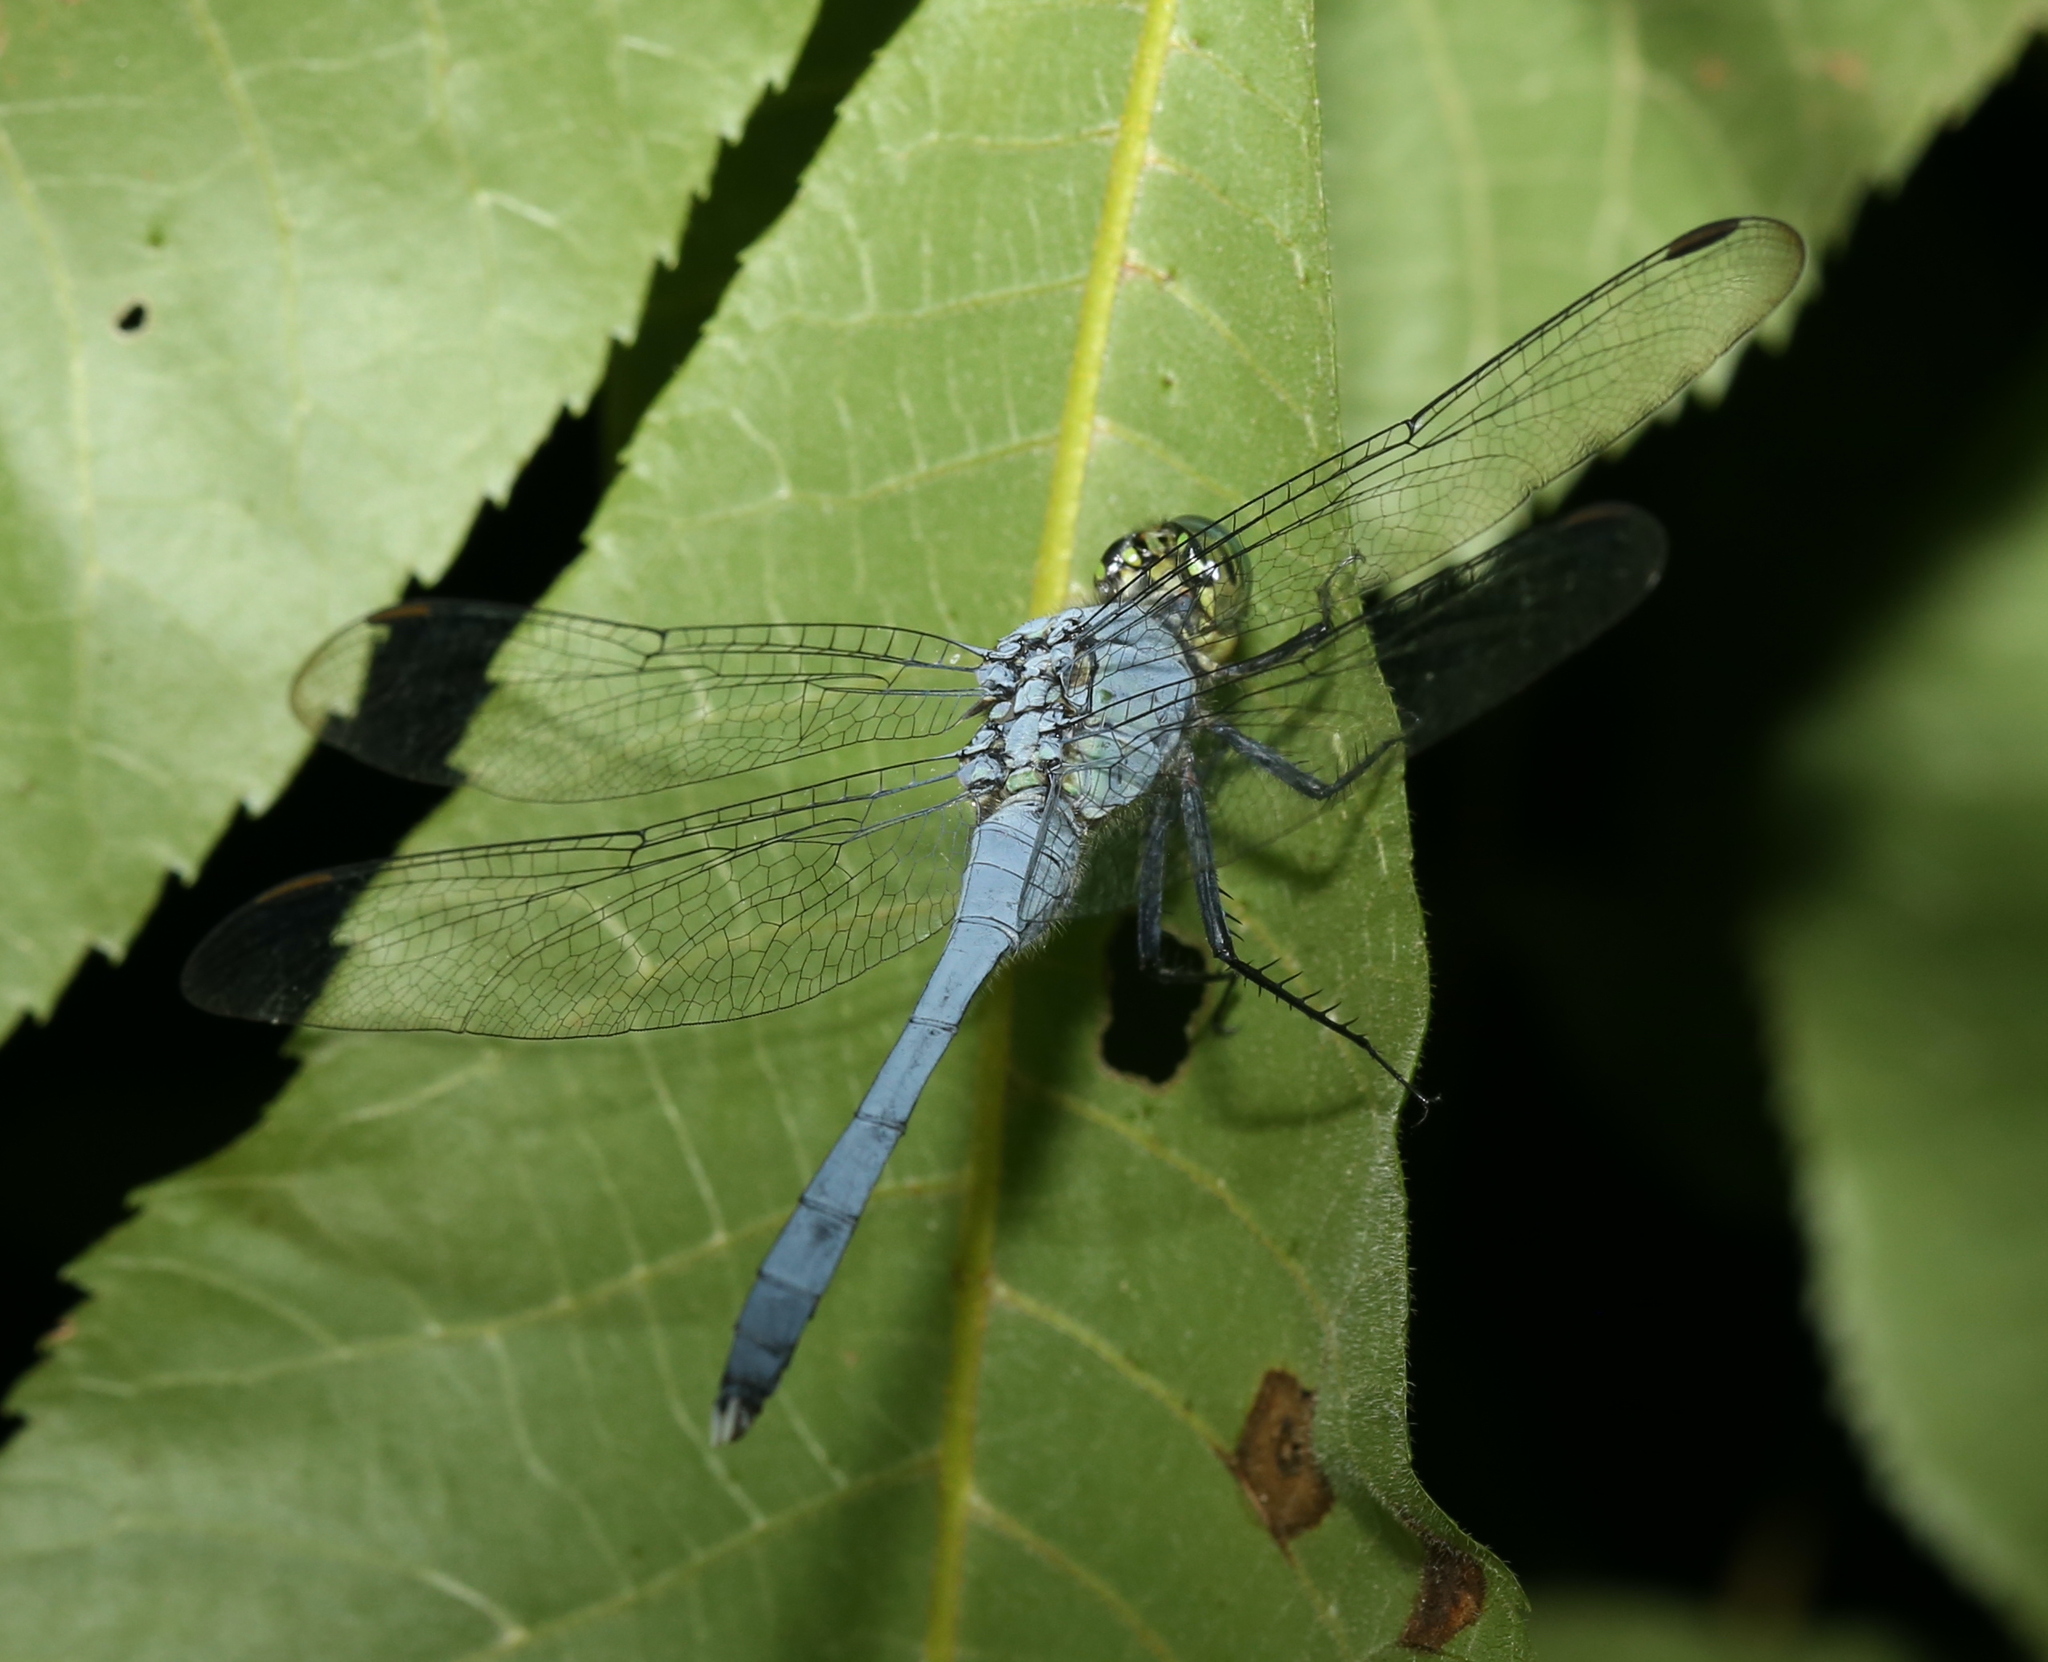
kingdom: Animalia
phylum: Arthropoda
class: Insecta
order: Odonata
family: Libellulidae
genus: Erythemis
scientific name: Erythemis simplicicollis
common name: Eastern pondhawk
